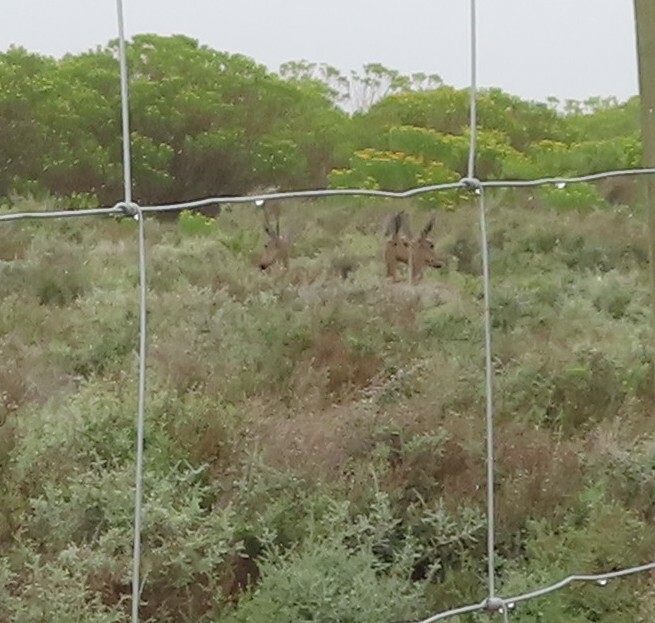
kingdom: Animalia
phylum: Chordata
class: Mammalia
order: Artiodactyla
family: Bovidae
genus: Pelea
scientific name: Pelea capreolus
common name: Common rhebok
